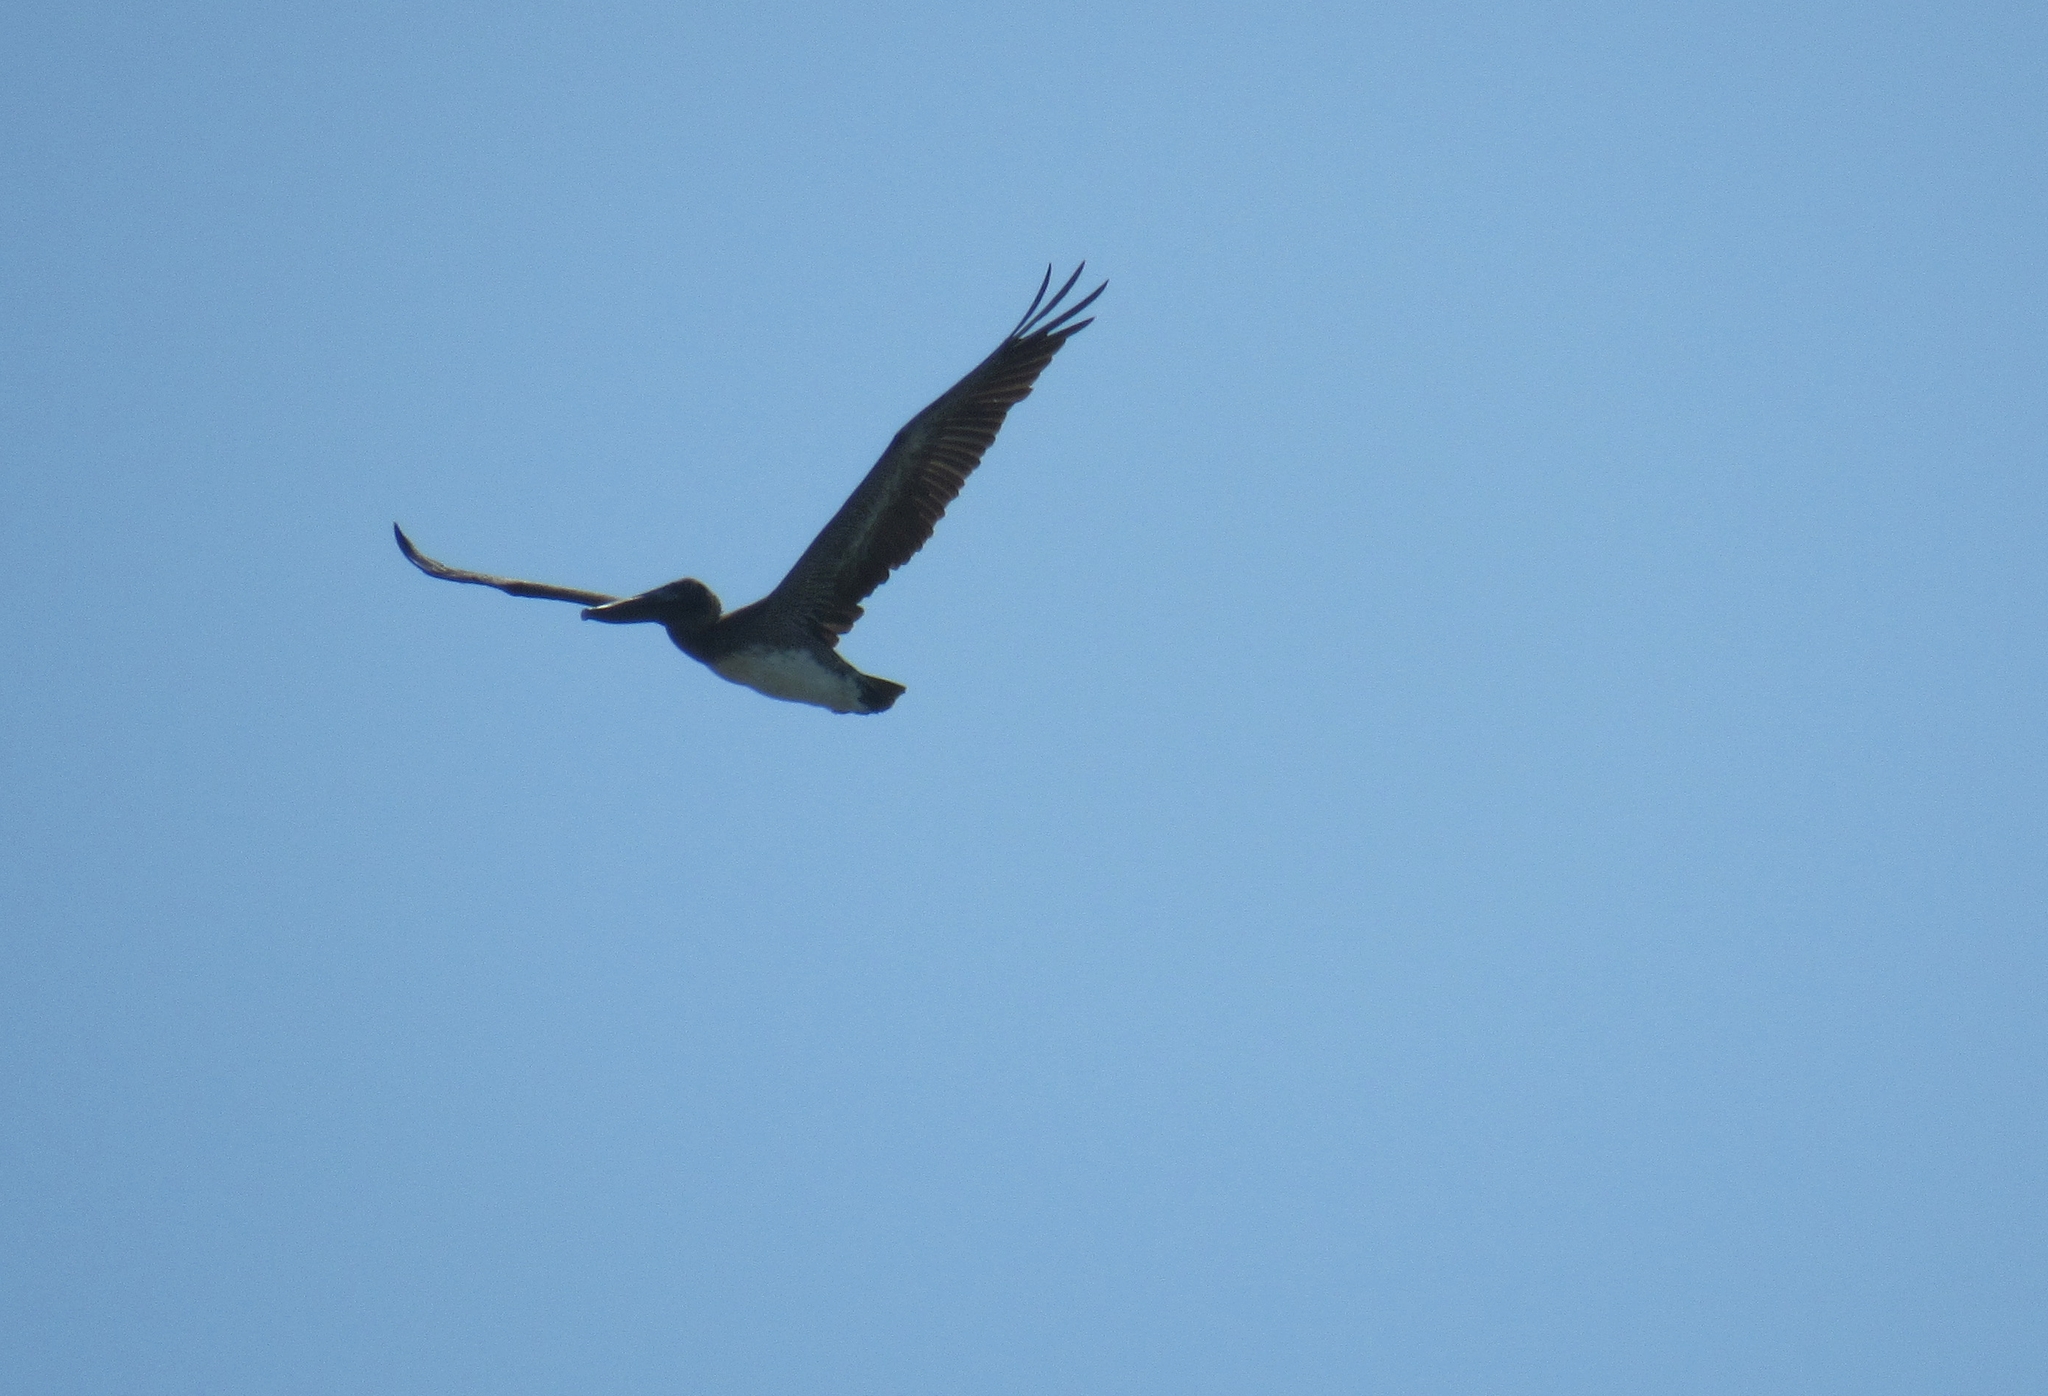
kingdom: Animalia
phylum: Chordata
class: Aves
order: Pelecaniformes
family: Pelecanidae
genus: Pelecanus
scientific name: Pelecanus occidentalis
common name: Brown pelican
